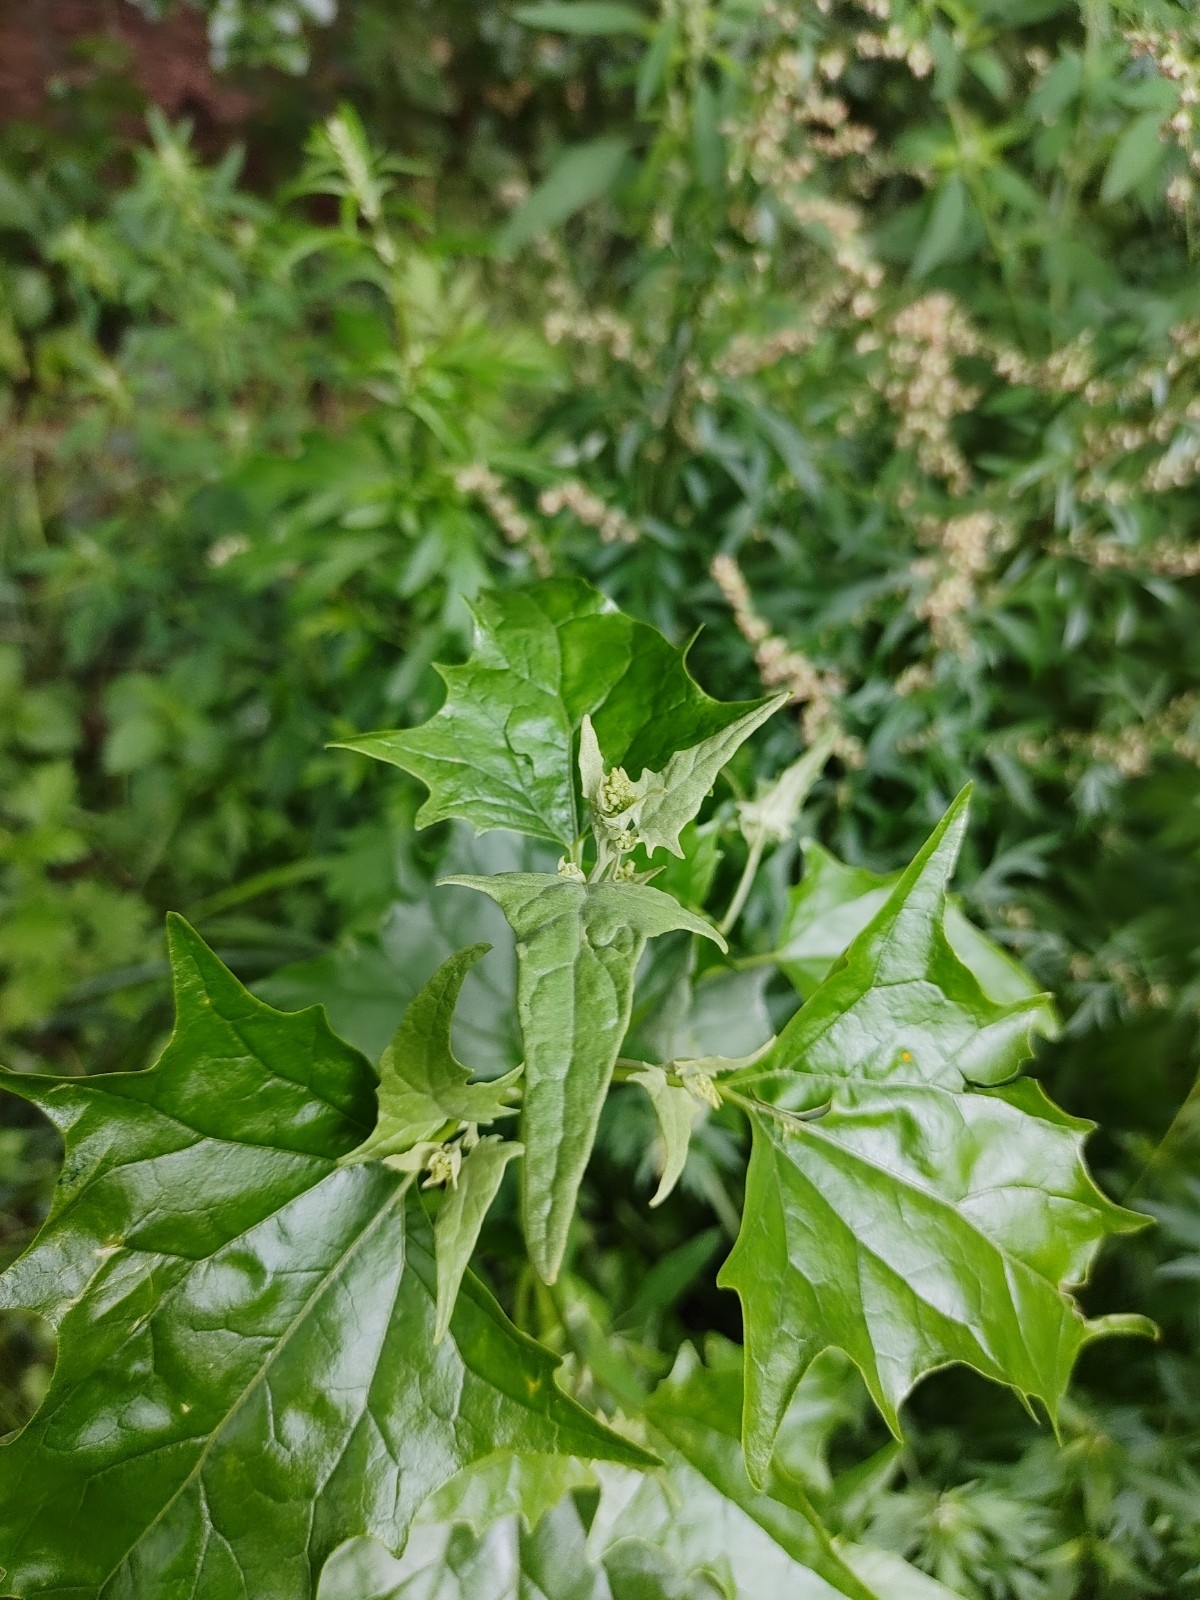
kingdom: Plantae
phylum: Tracheophyta
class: Magnoliopsida
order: Caryophyllales
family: Amaranthaceae
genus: Atriplex
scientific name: Atriplex sagittata
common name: Purple orache
